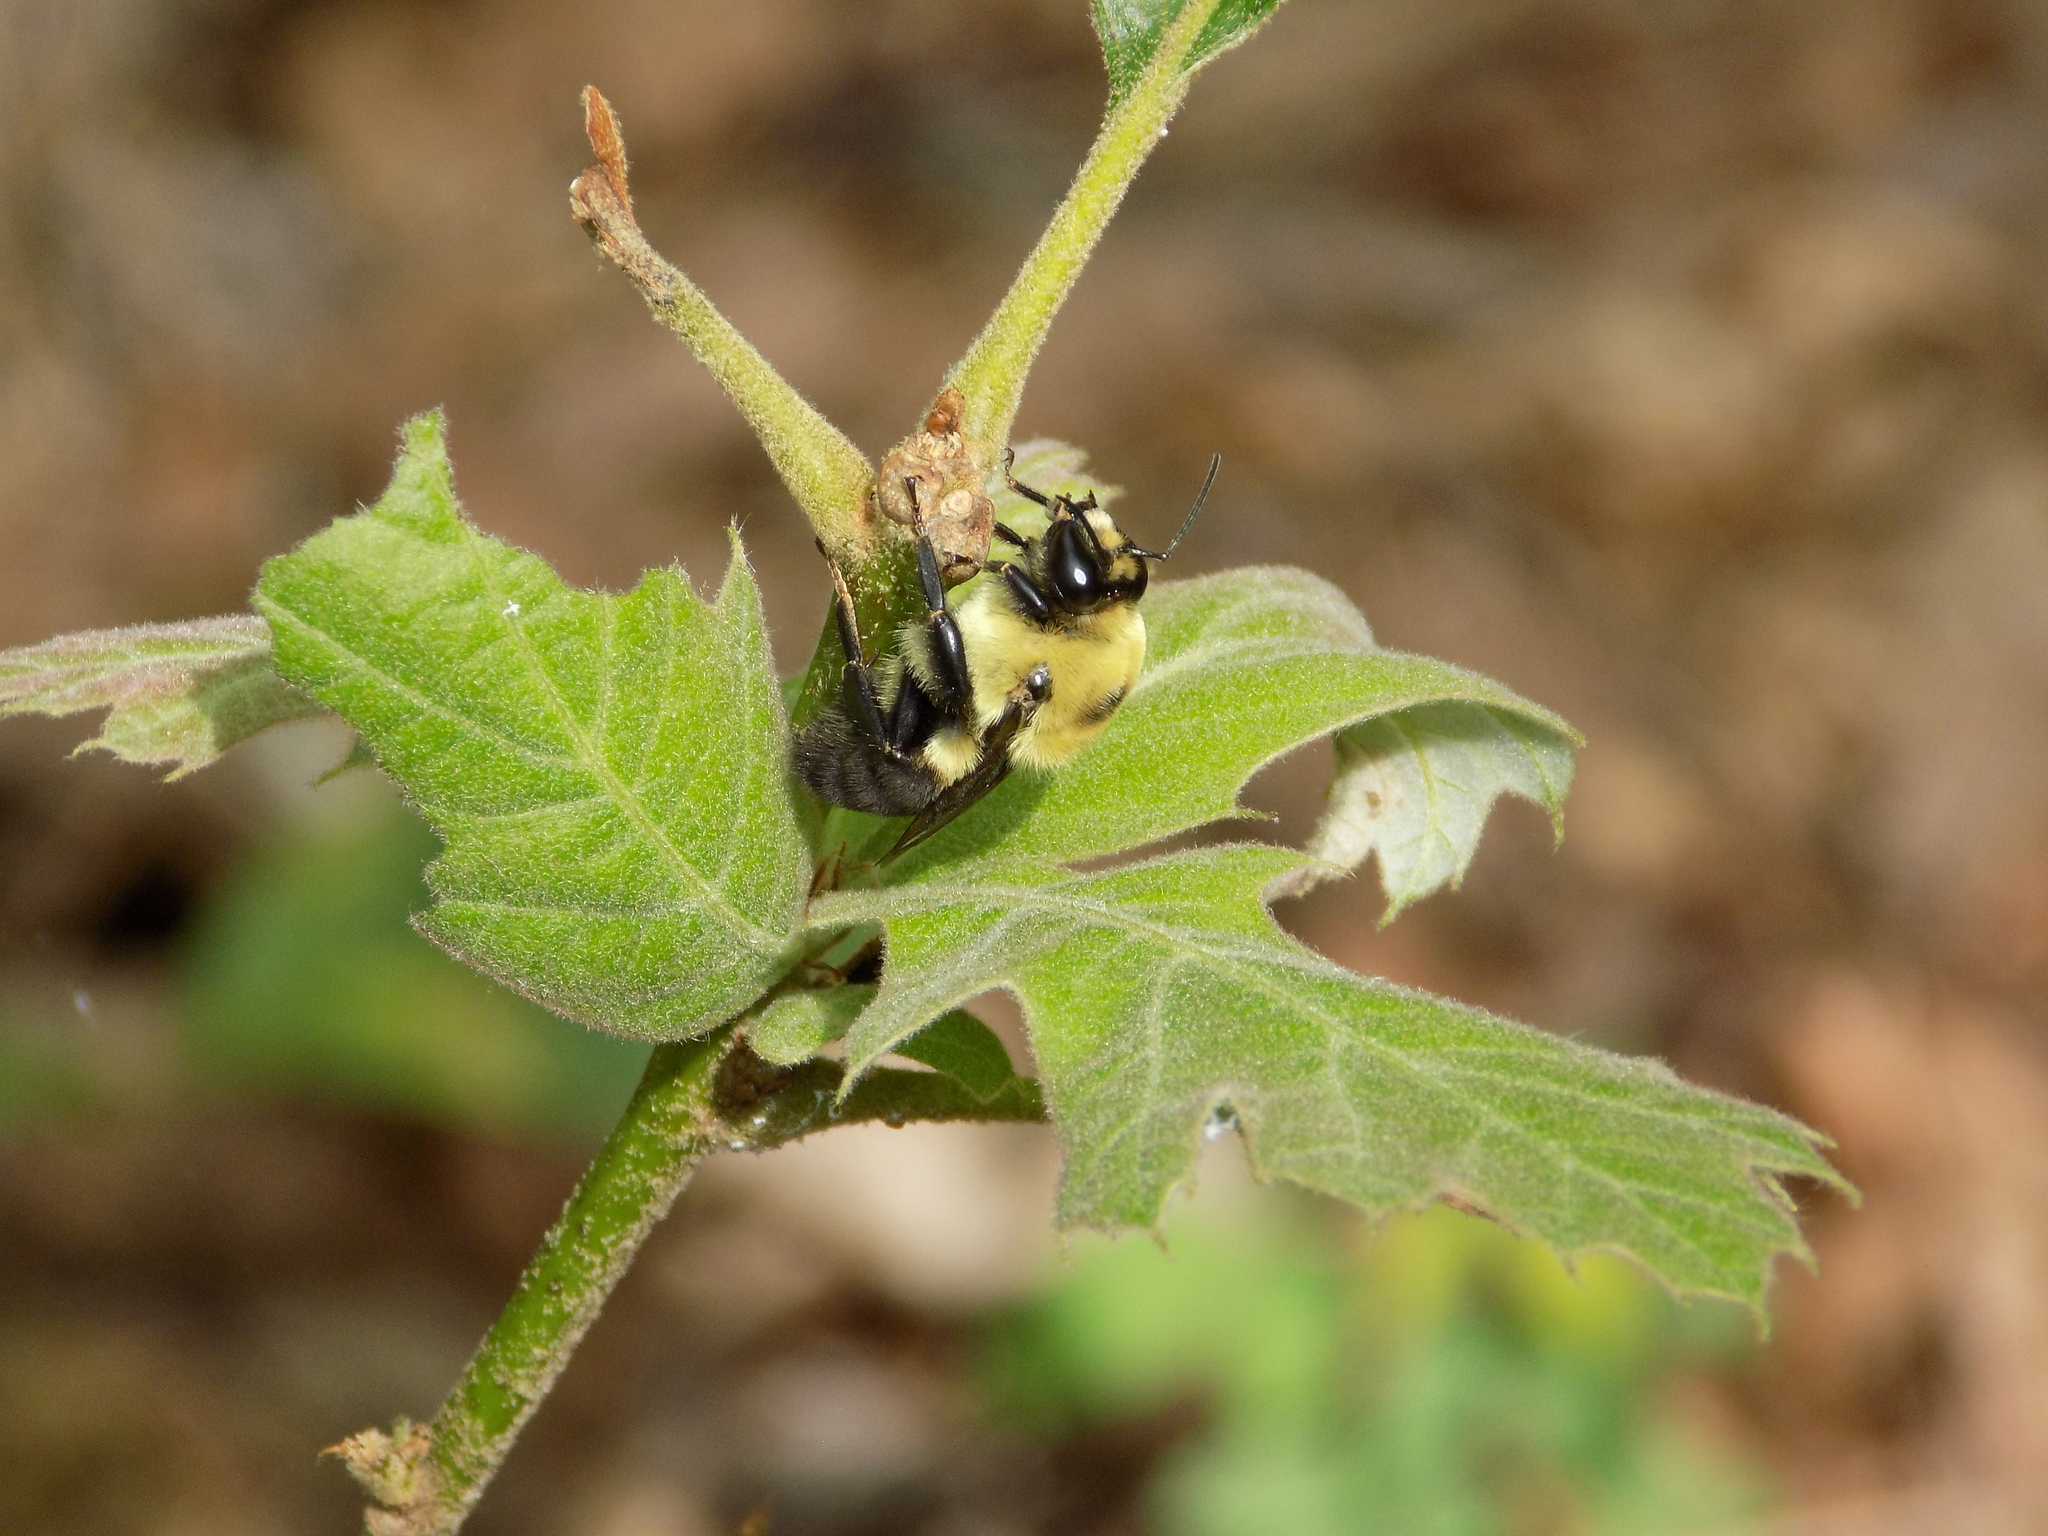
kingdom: Animalia
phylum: Arthropoda
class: Insecta
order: Hymenoptera
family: Apidae
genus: Bombus
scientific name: Bombus griseocollis
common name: Brown-belted bumble bee
